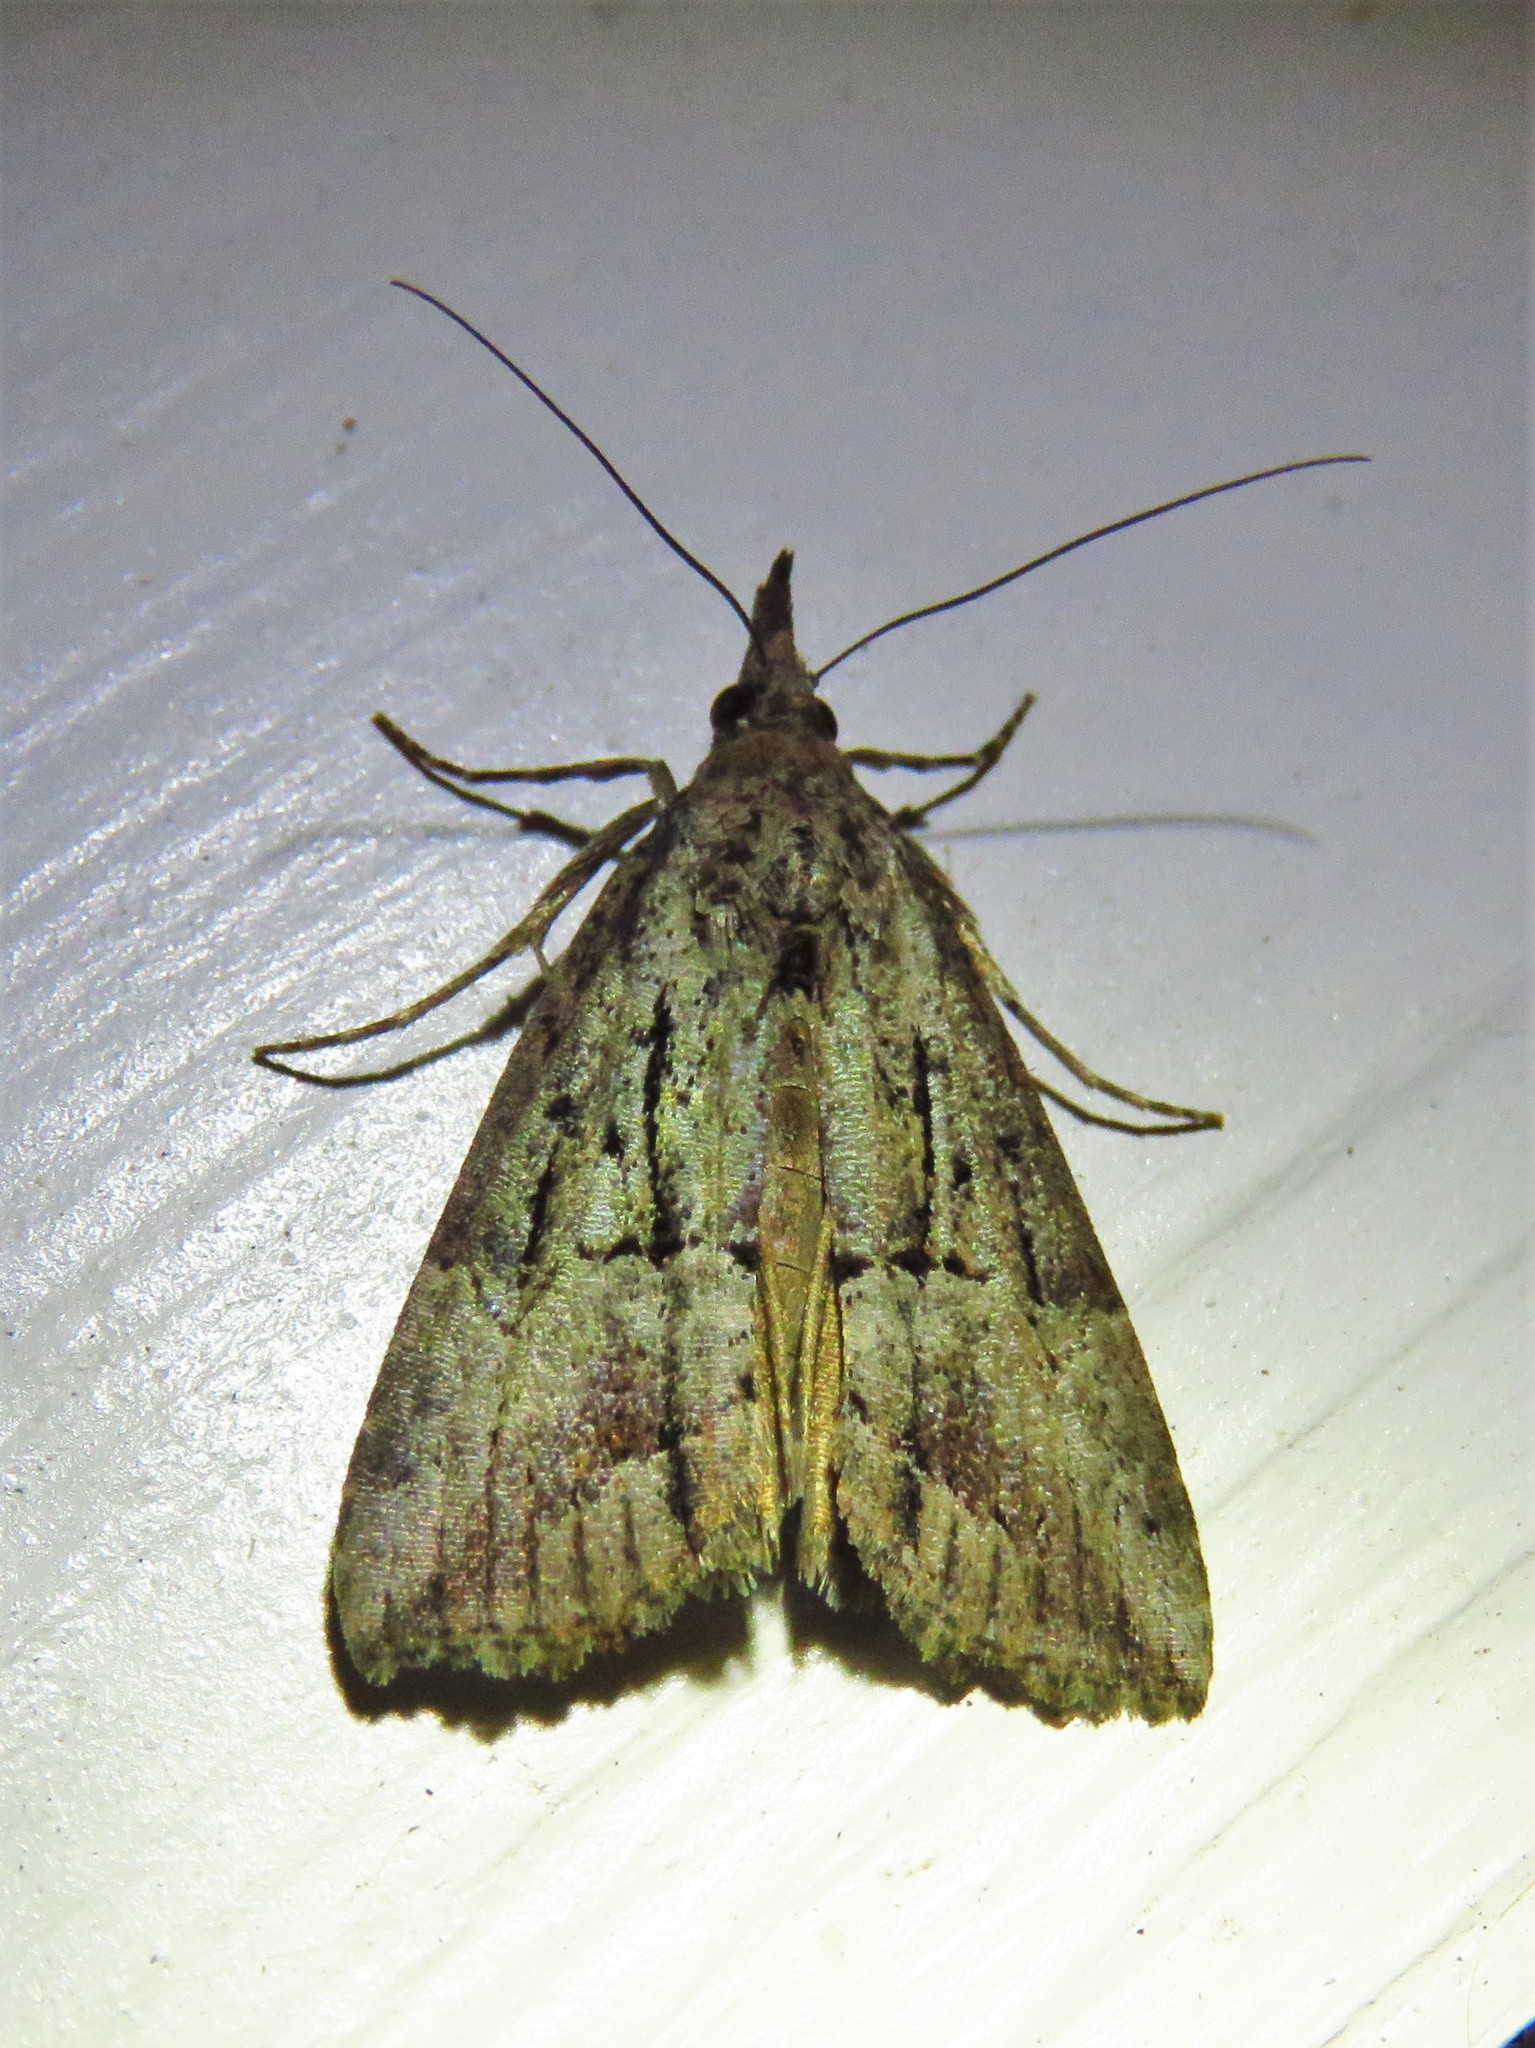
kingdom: Animalia
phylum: Arthropoda
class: Insecta
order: Lepidoptera
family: Erebidae
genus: Hypena
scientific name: Hypena scabra
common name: Green cloverworm
